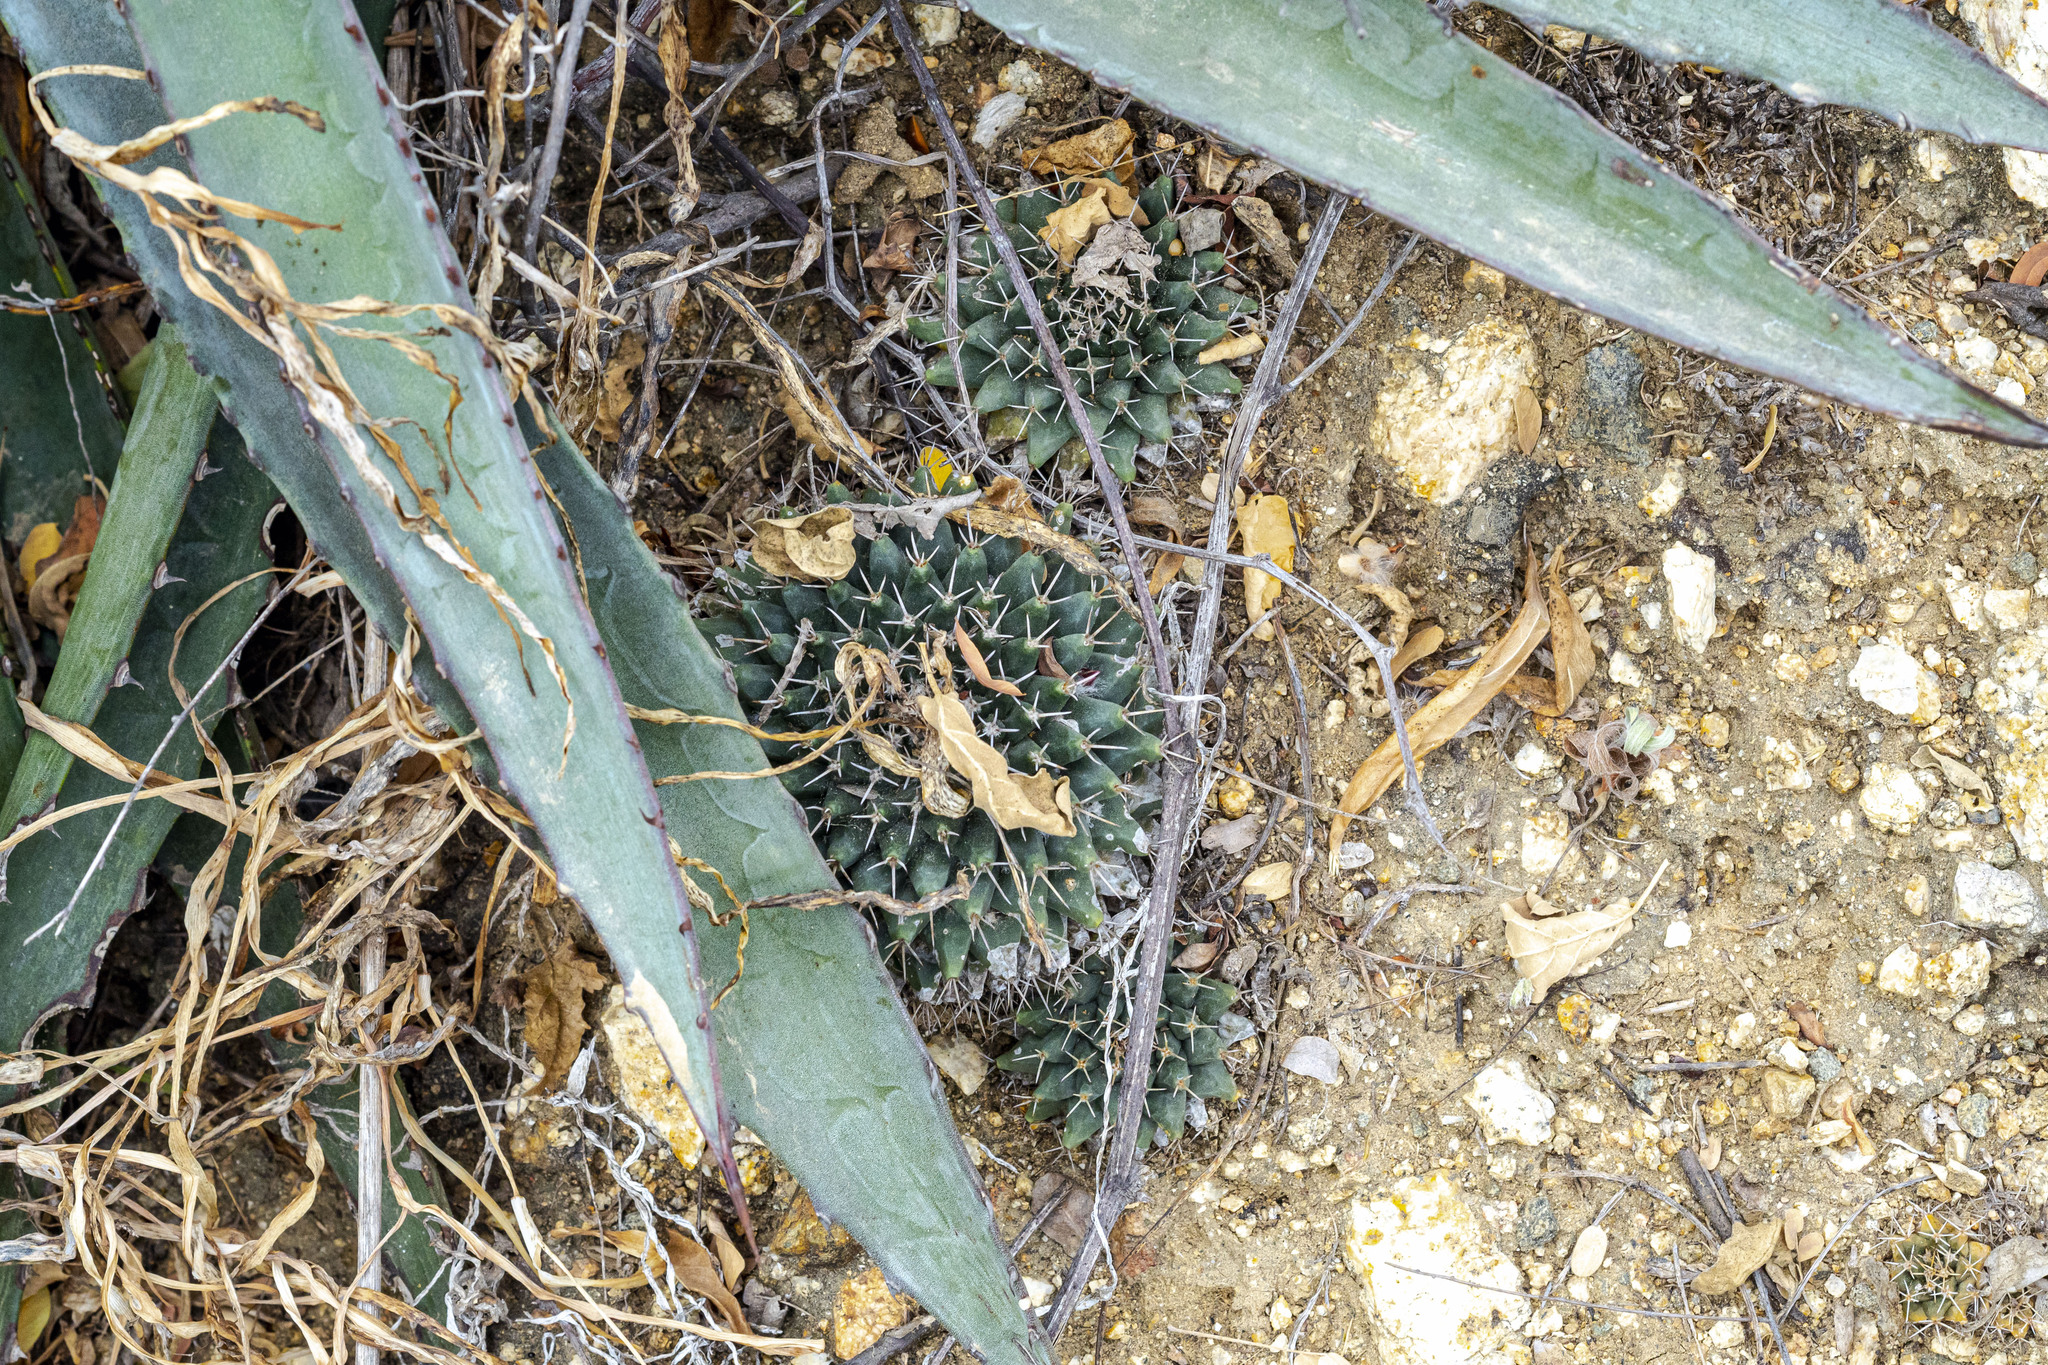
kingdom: Plantae
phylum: Tracheophyta
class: Magnoliopsida
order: Caryophyllales
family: Cactaceae
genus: Mammillaria
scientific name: Mammillaria peninsularis
